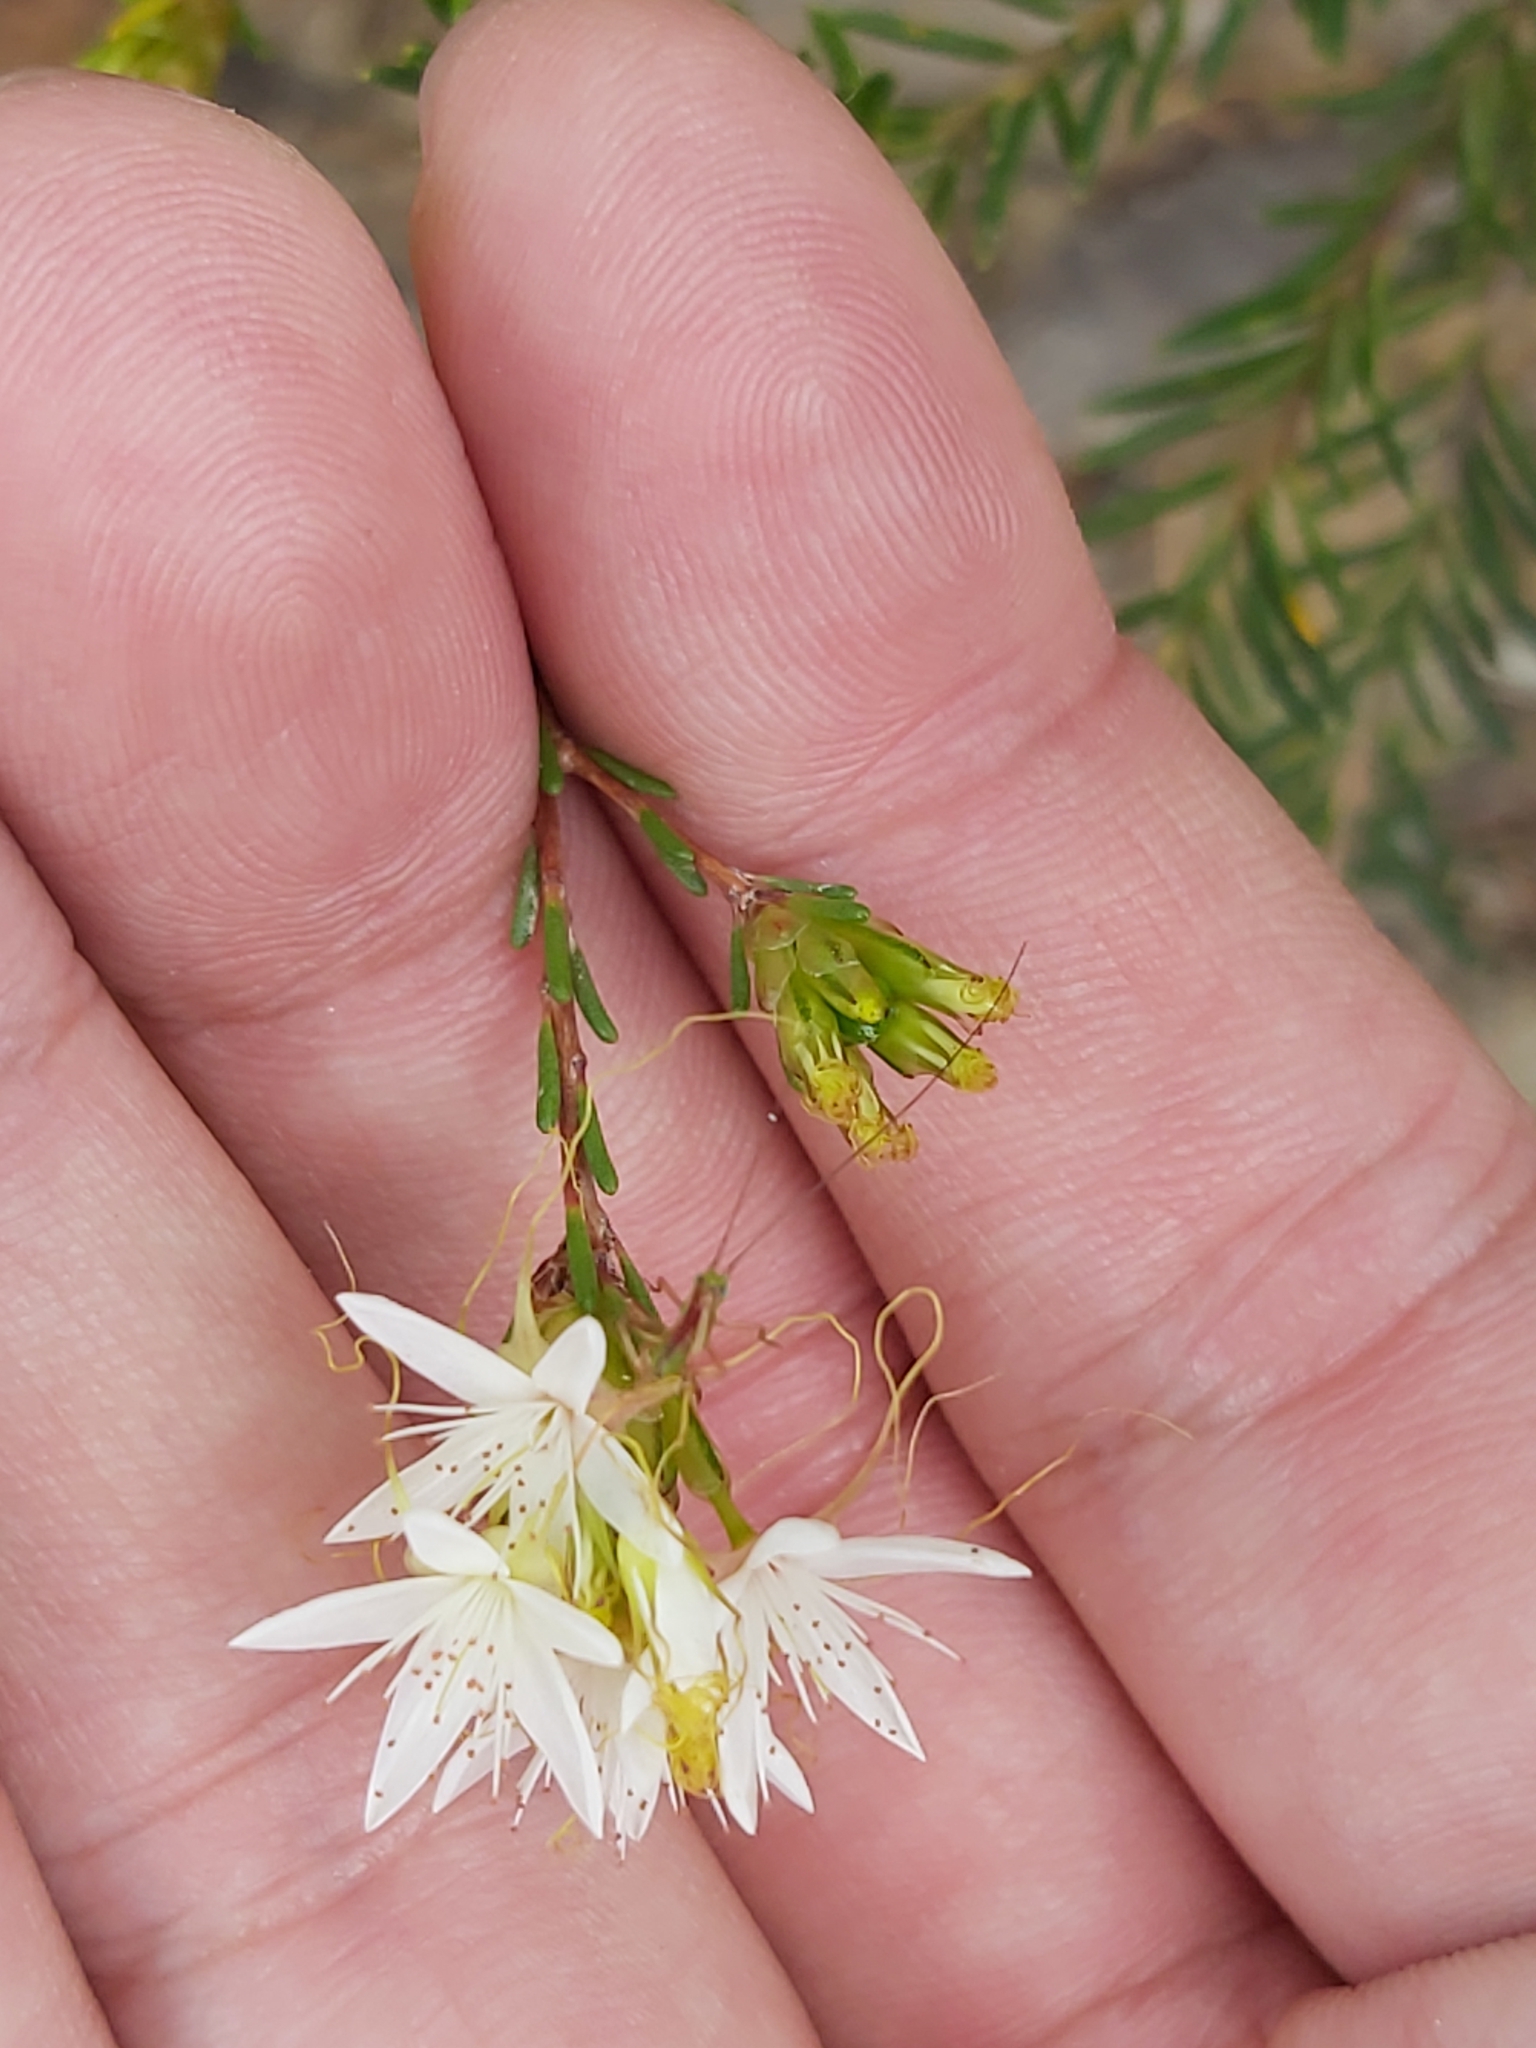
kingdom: Plantae
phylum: Tracheophyta
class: Magnoliopsida
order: Myrtales
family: Myrtaceae
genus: Calytrix
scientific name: Calytrix tetragona
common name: Common fringe myrtle
